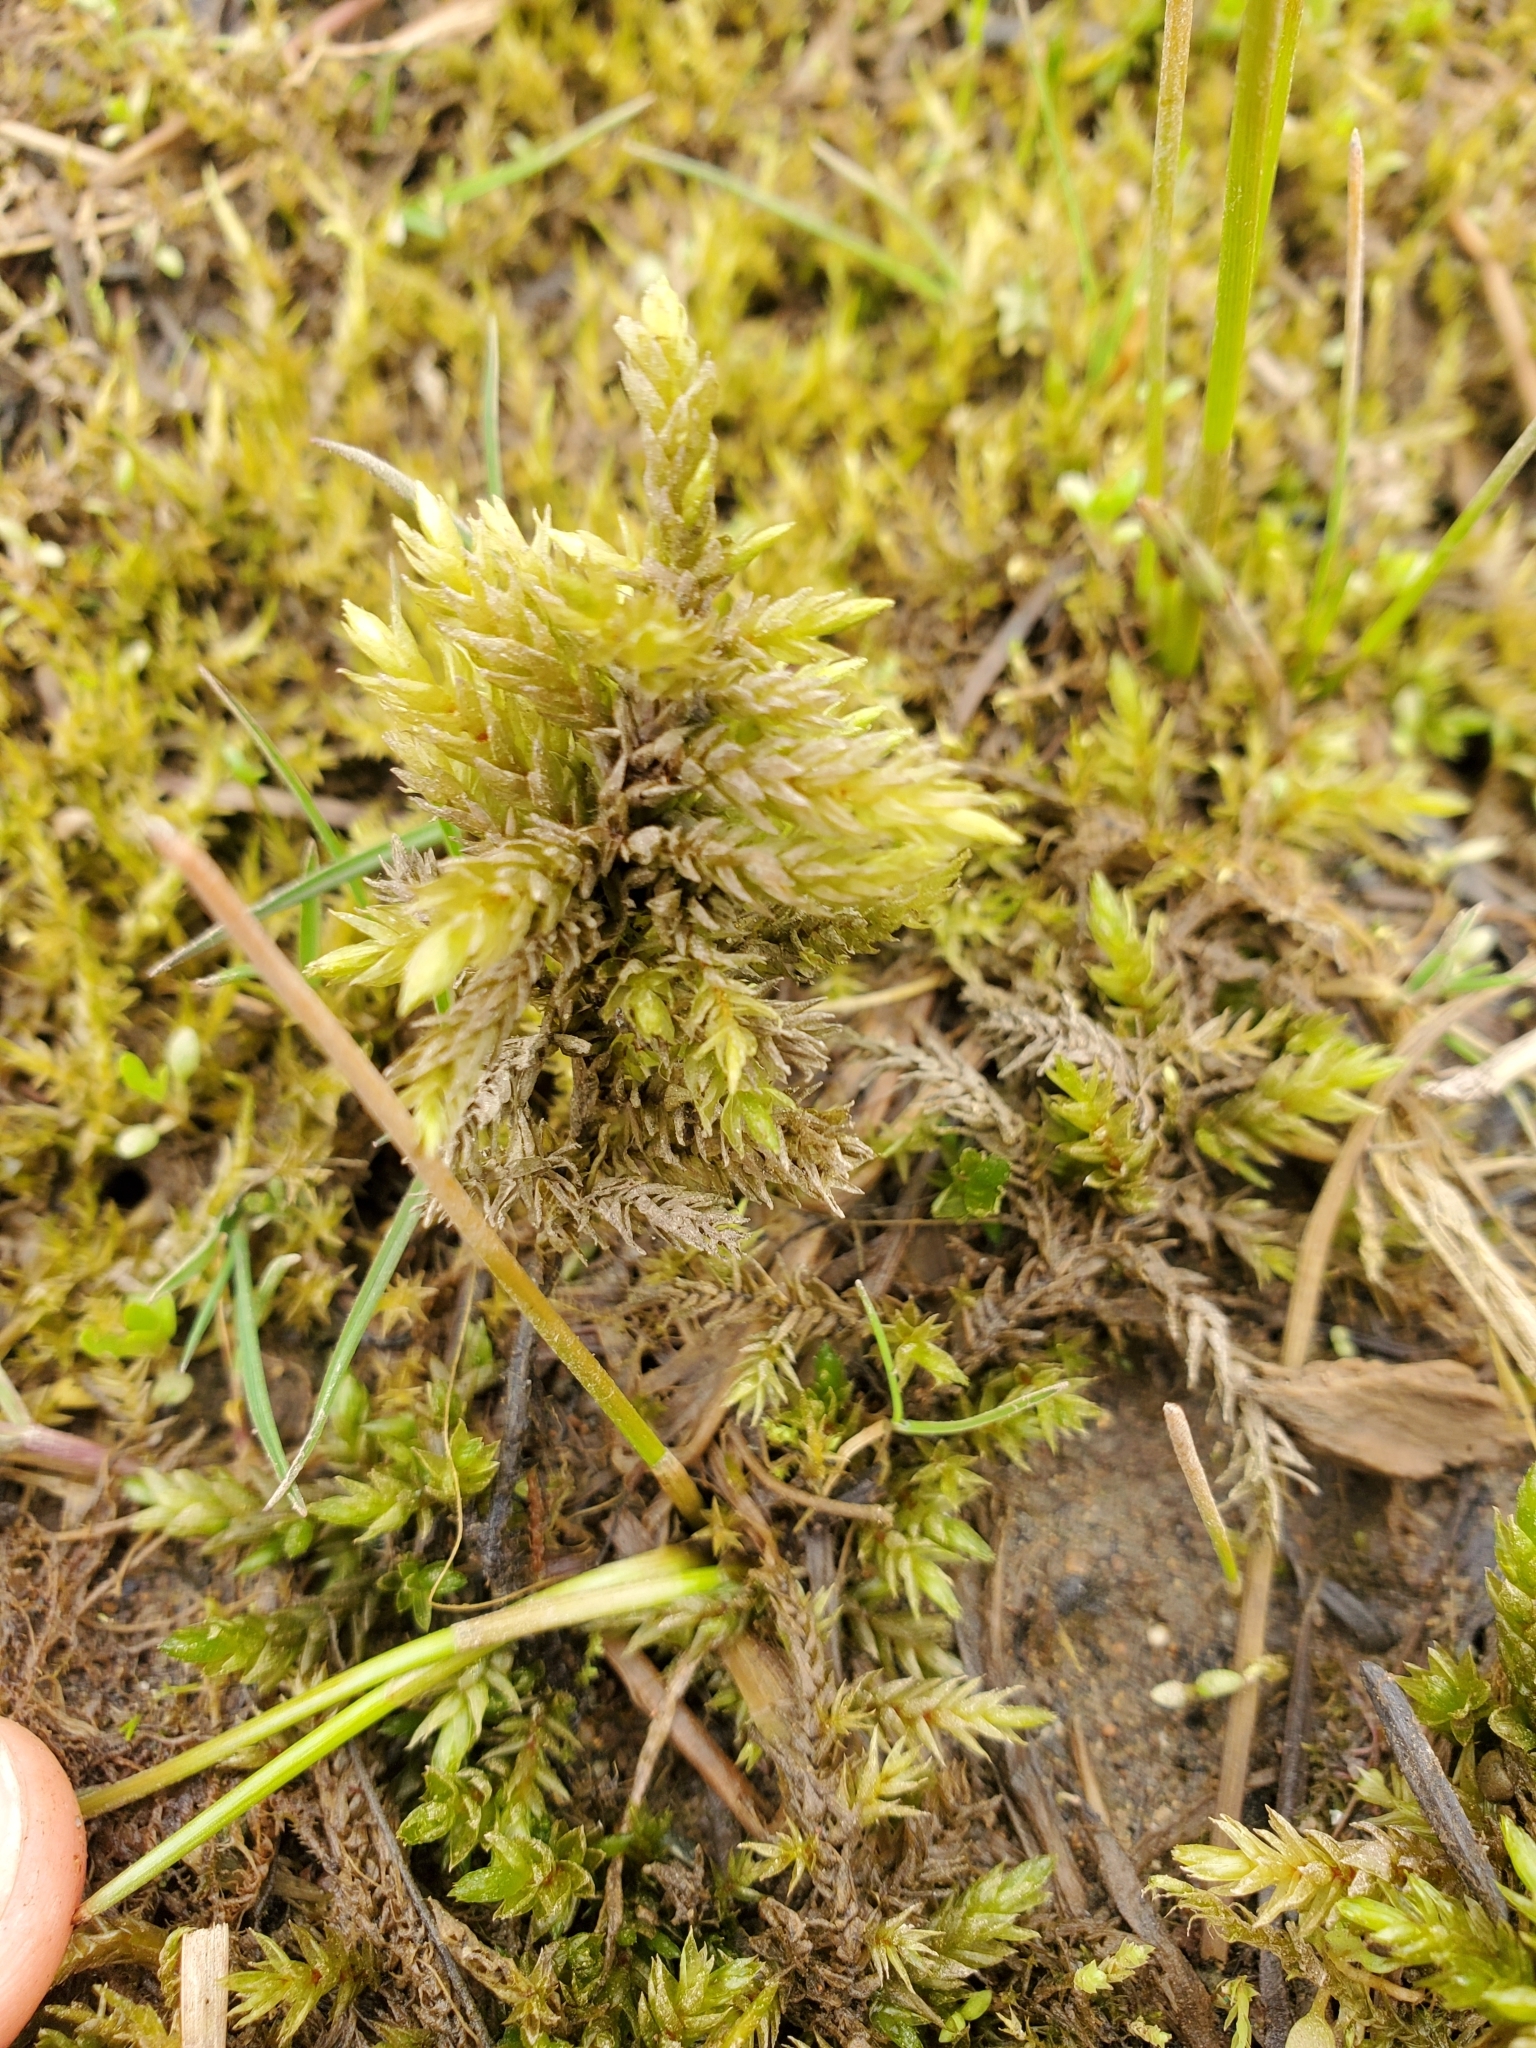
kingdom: Plantae
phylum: Bryophyta
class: Bryopsida
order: Hypnales
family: Climaciaceae
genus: Climacium
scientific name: Climacium dendroides
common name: Northern tree moss
